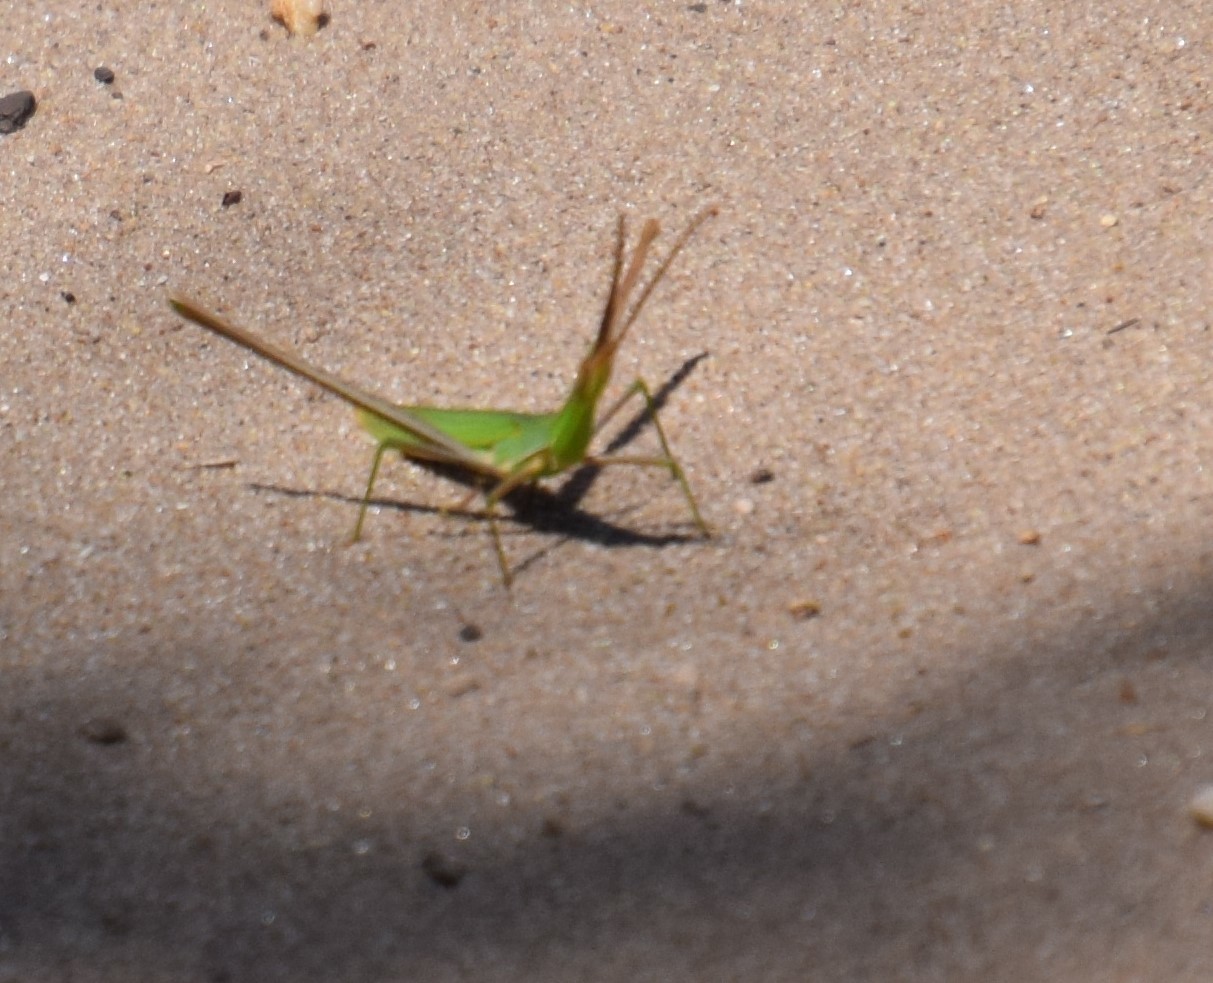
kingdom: Animalia
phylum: Arthropoda
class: Insecta
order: Orthoptera
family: Acrididae
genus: Acrida
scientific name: Acrida conica
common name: Giant green slantface
